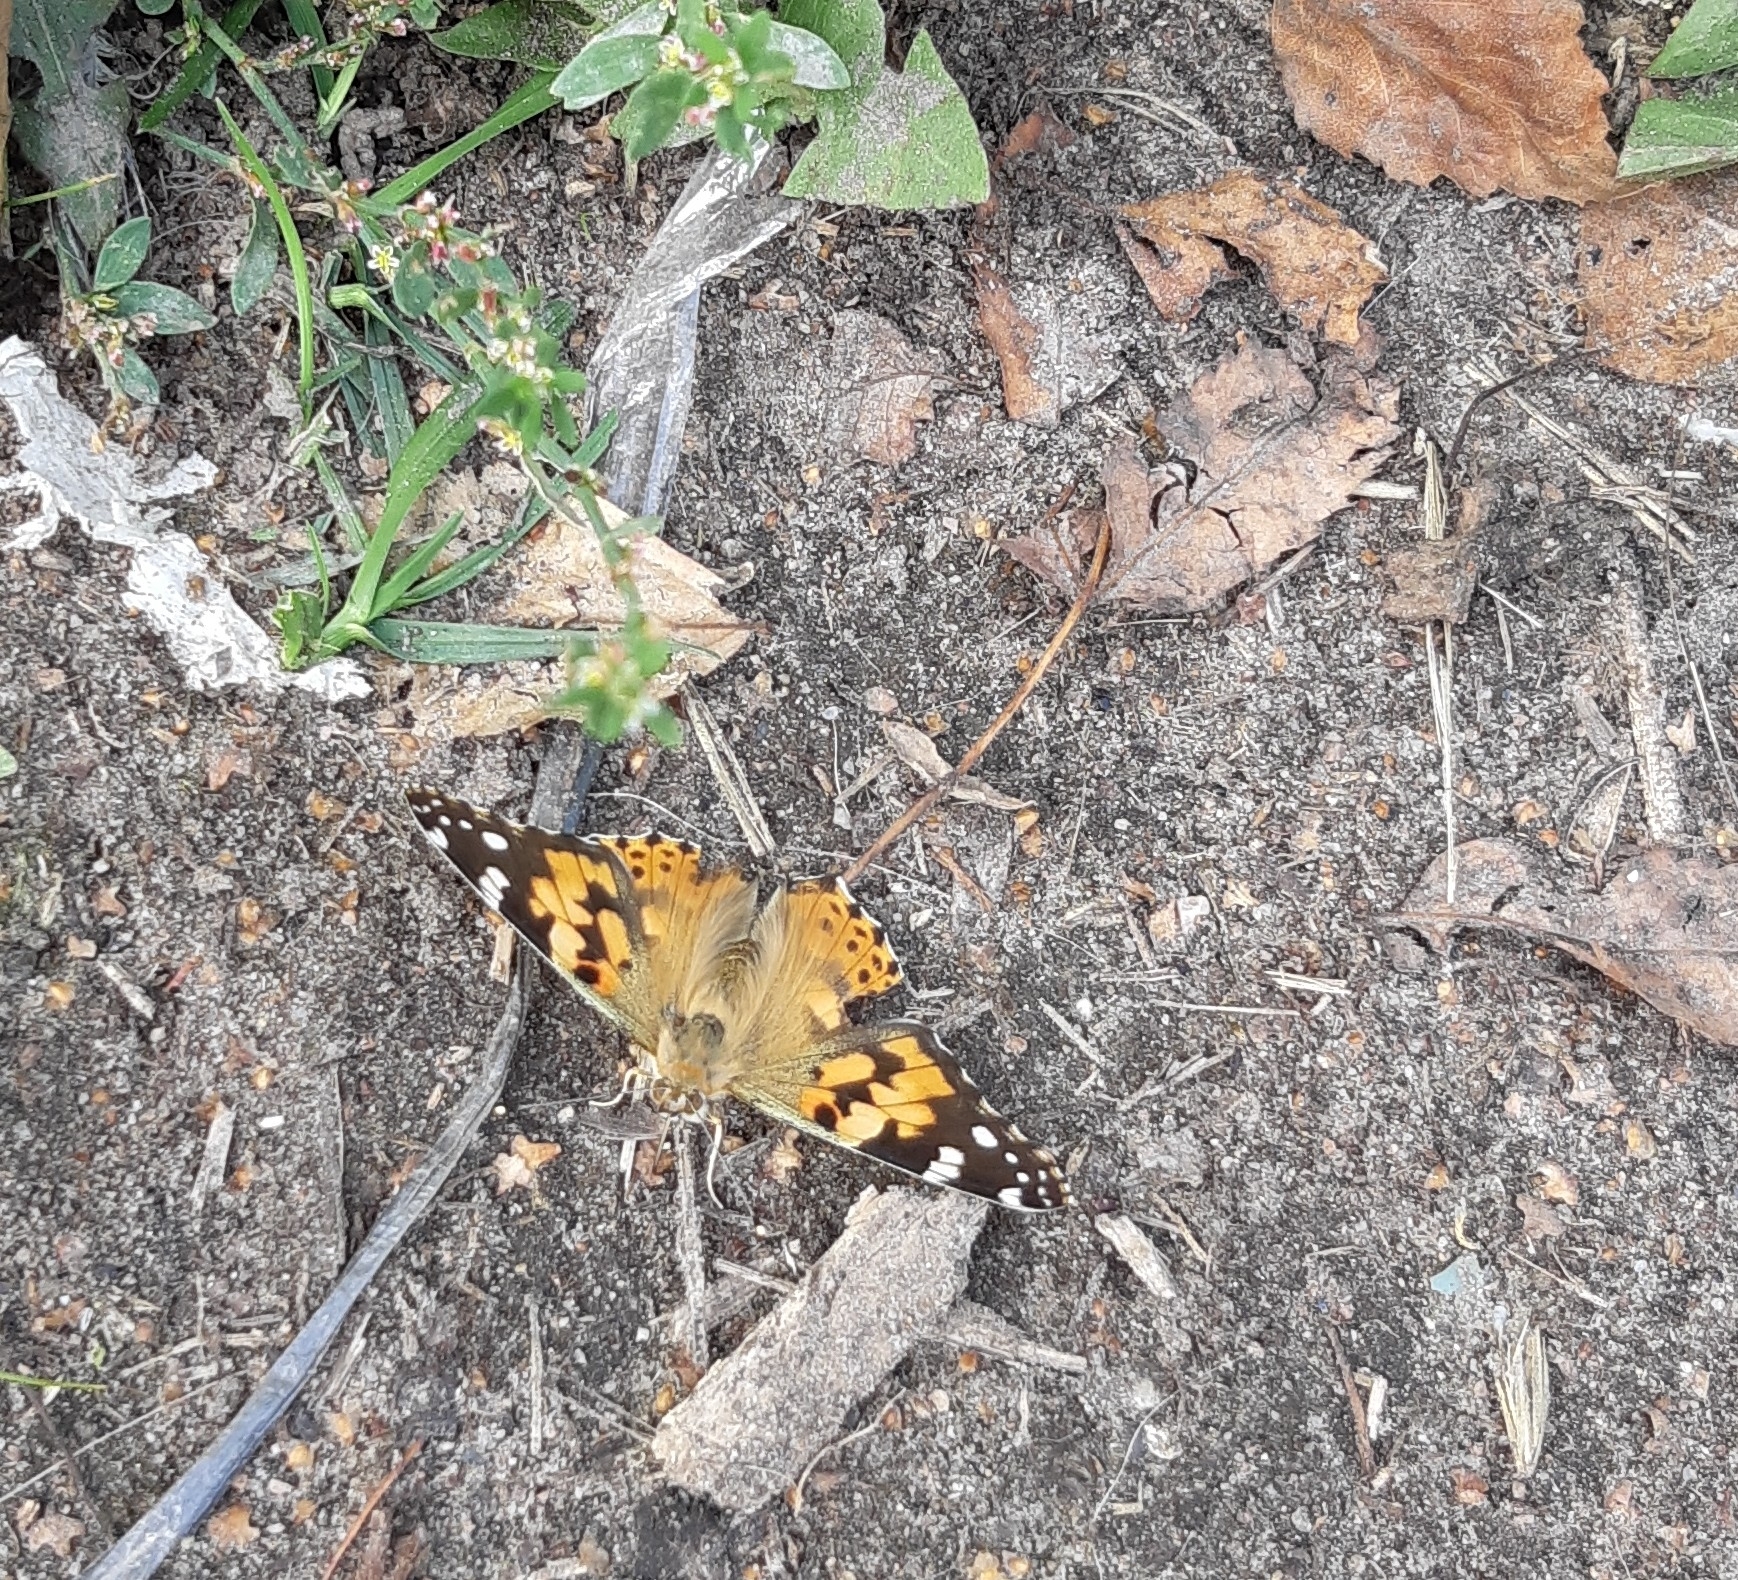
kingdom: Animalia
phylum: Arthropoda
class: Insecta
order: Lepidoptera
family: Nymphalidae
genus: Vanessa
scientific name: Vanessa cardui
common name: Painted lady
